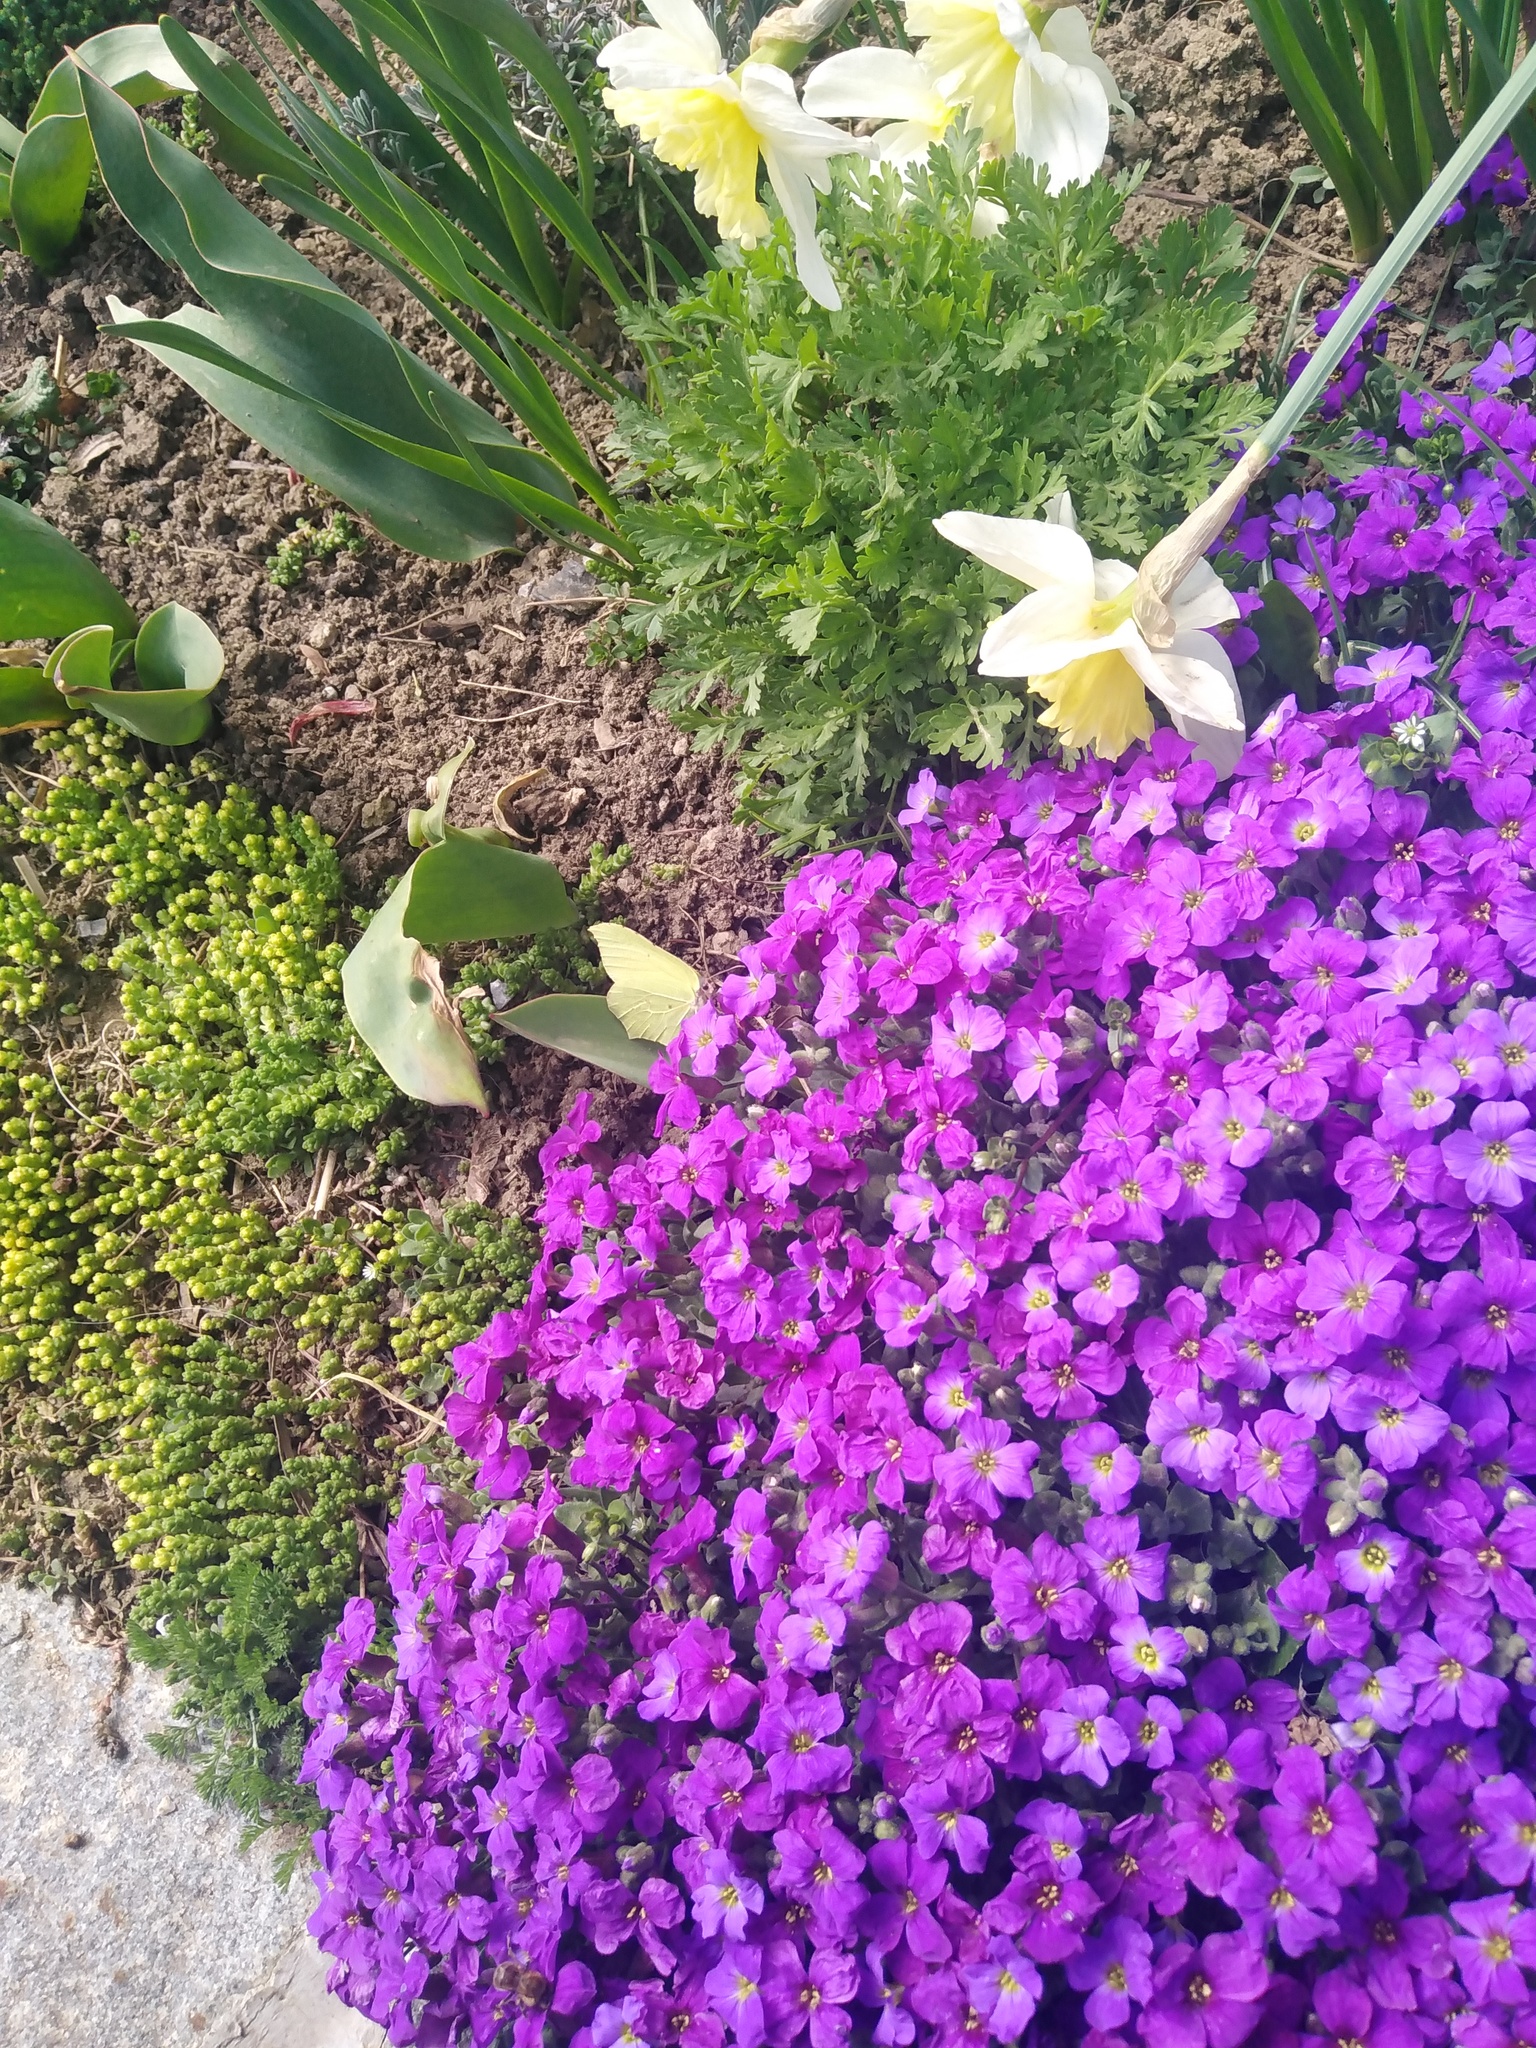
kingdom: Animalia
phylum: Arthropoda
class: Insecta
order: Lepidoptera
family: Pieridae
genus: Gonepteryx
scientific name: Gonepteryx rhamni
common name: Brimstone
